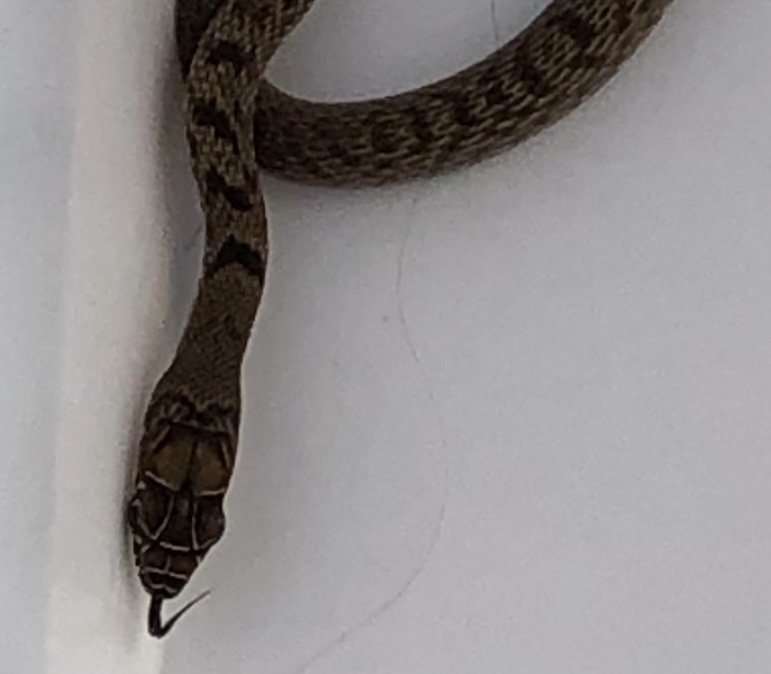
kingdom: Animalia
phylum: Chordata
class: Squamata
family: Colubridae
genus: Masticophis
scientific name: Masticophis flagellum
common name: Coachwhip
